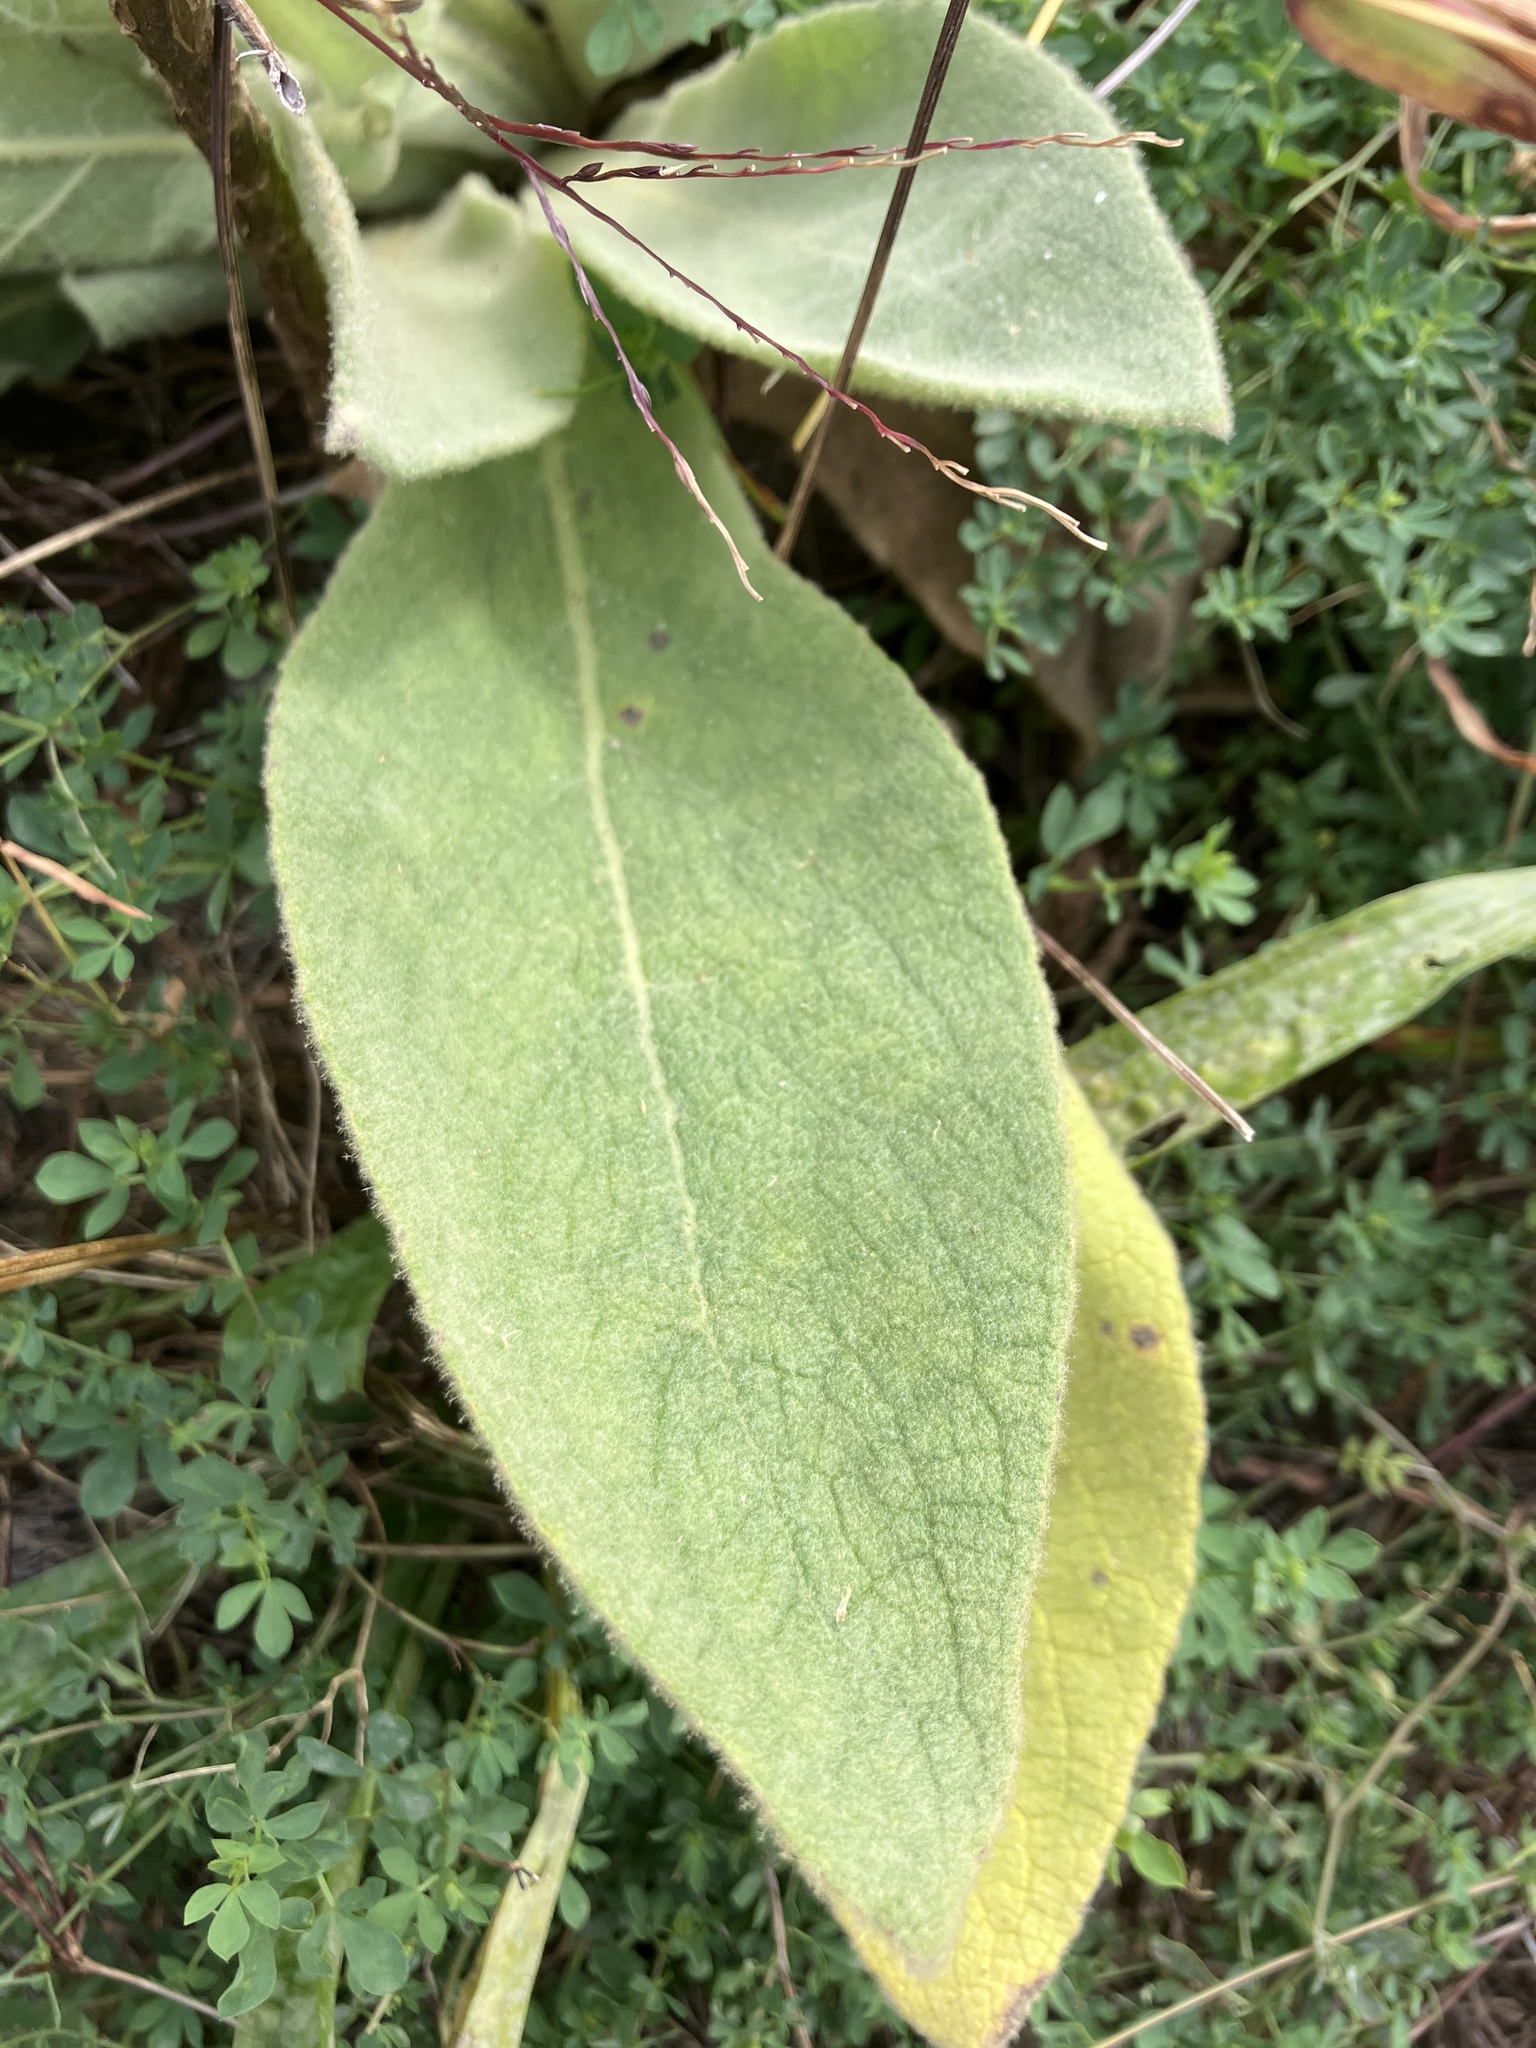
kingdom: Plantae
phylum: Tracheophyta
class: Magnoliopsida
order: Lamiales
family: Scrophulariaceae
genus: Verbascum
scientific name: Verbascum thapsus
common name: Common mullein
